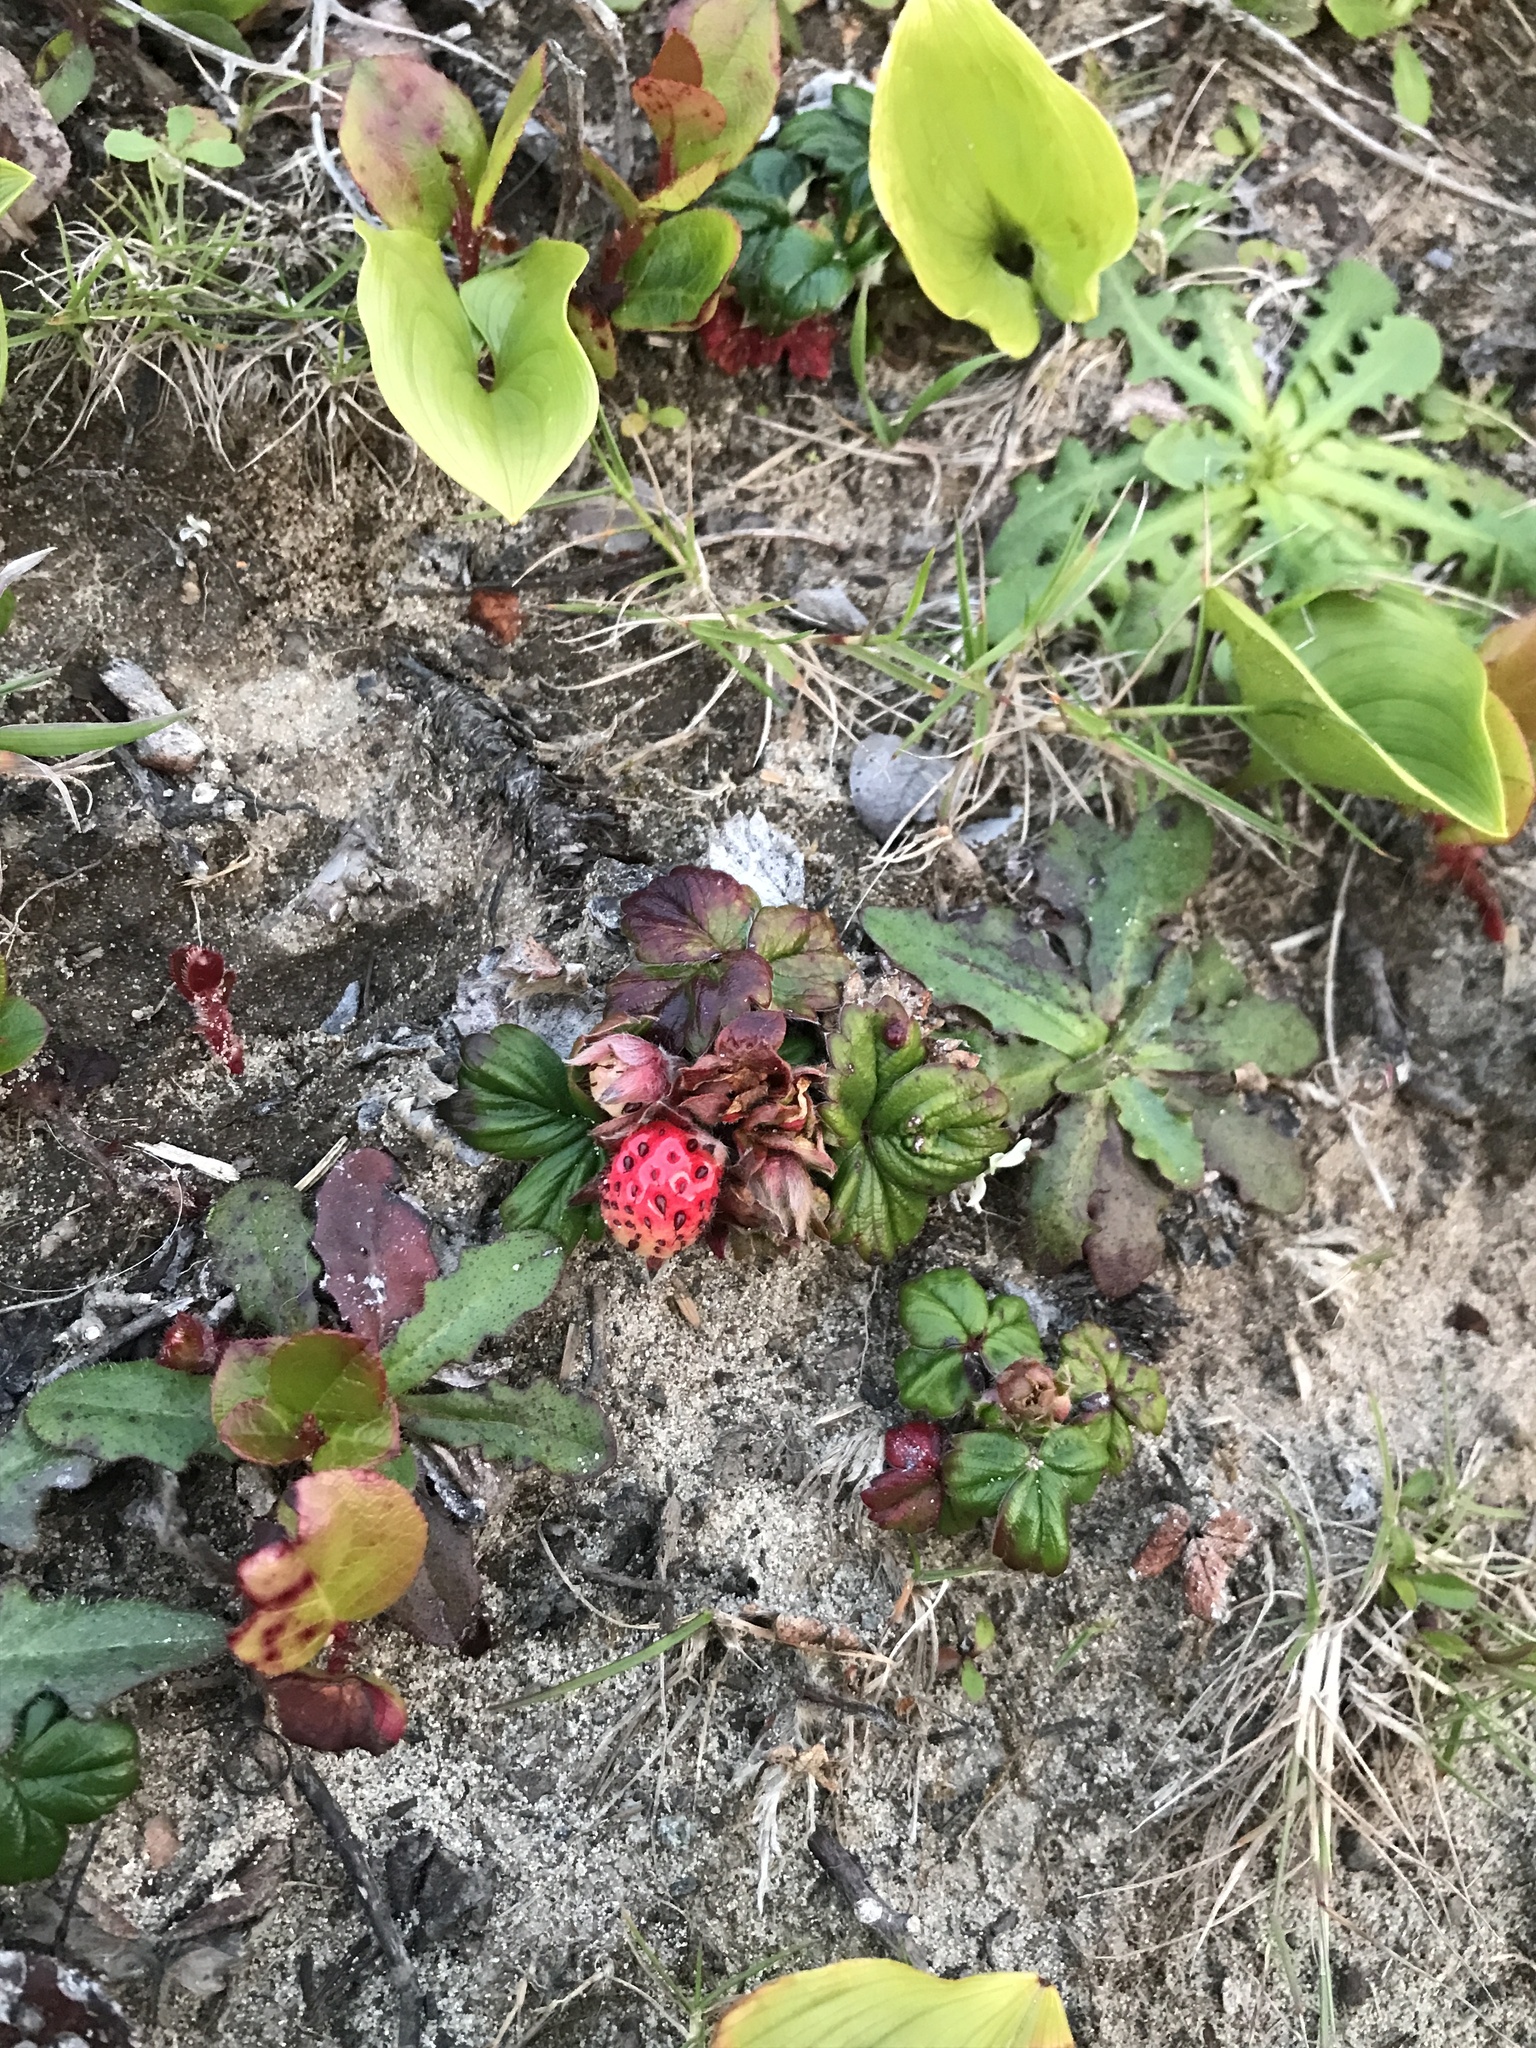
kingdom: Plantae
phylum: Tracheophyta
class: Magnoliopsida
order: Rosales
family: Rosaceae
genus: Fragaria
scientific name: Fragaria chiloensis
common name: Beach strawberry
